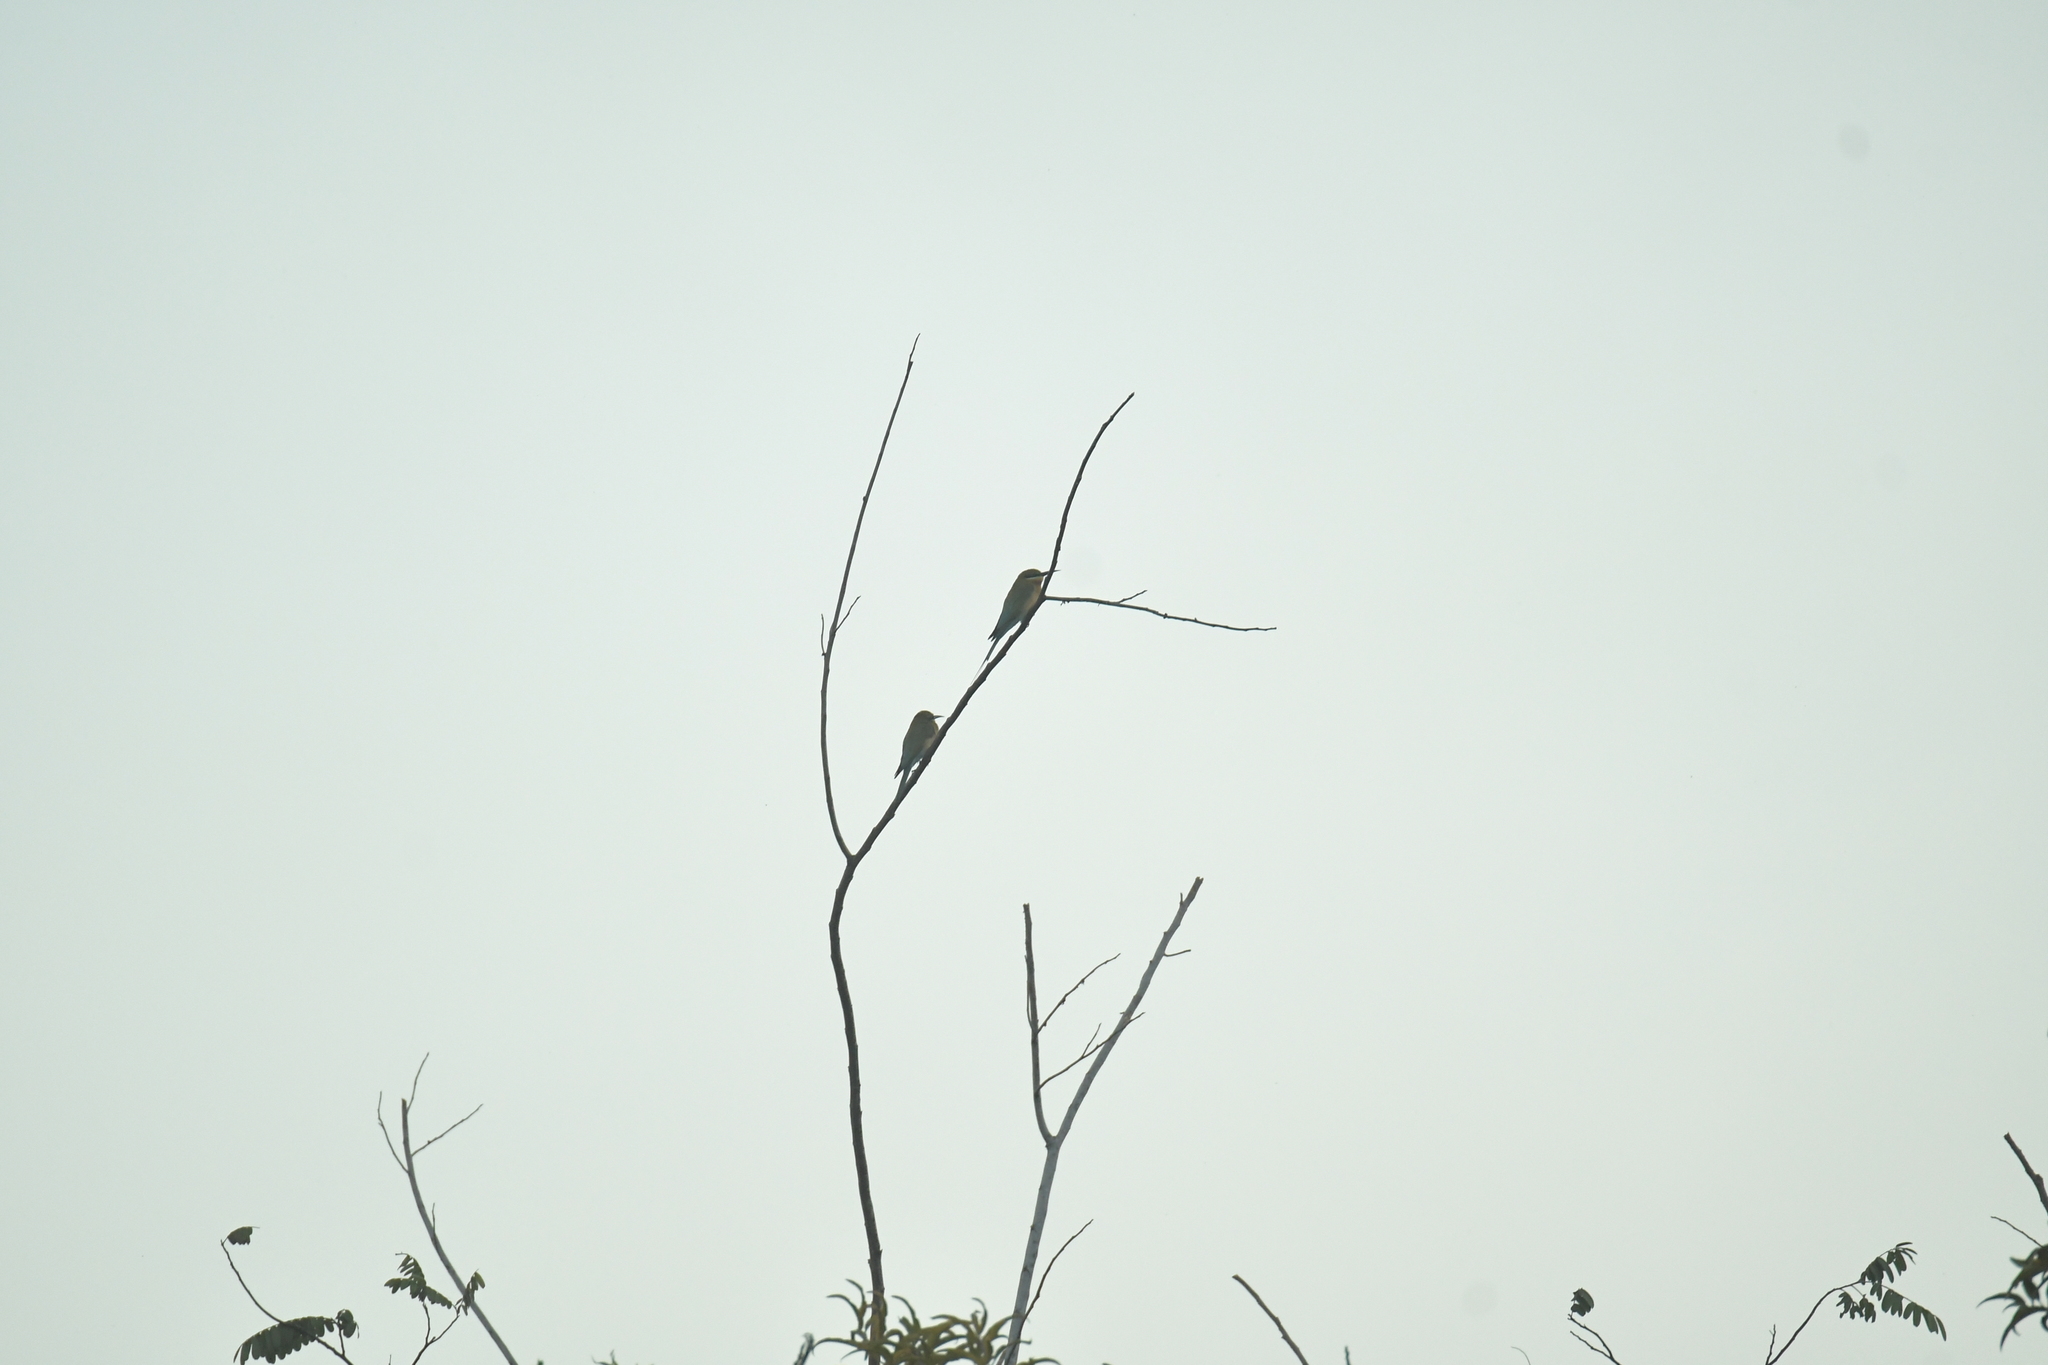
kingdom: Animalia
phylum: Chordata
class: Aves
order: Coraciiformes
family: Meropidae
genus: Merops
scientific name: Merops philippinus
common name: Blue-tailed bee-eater
